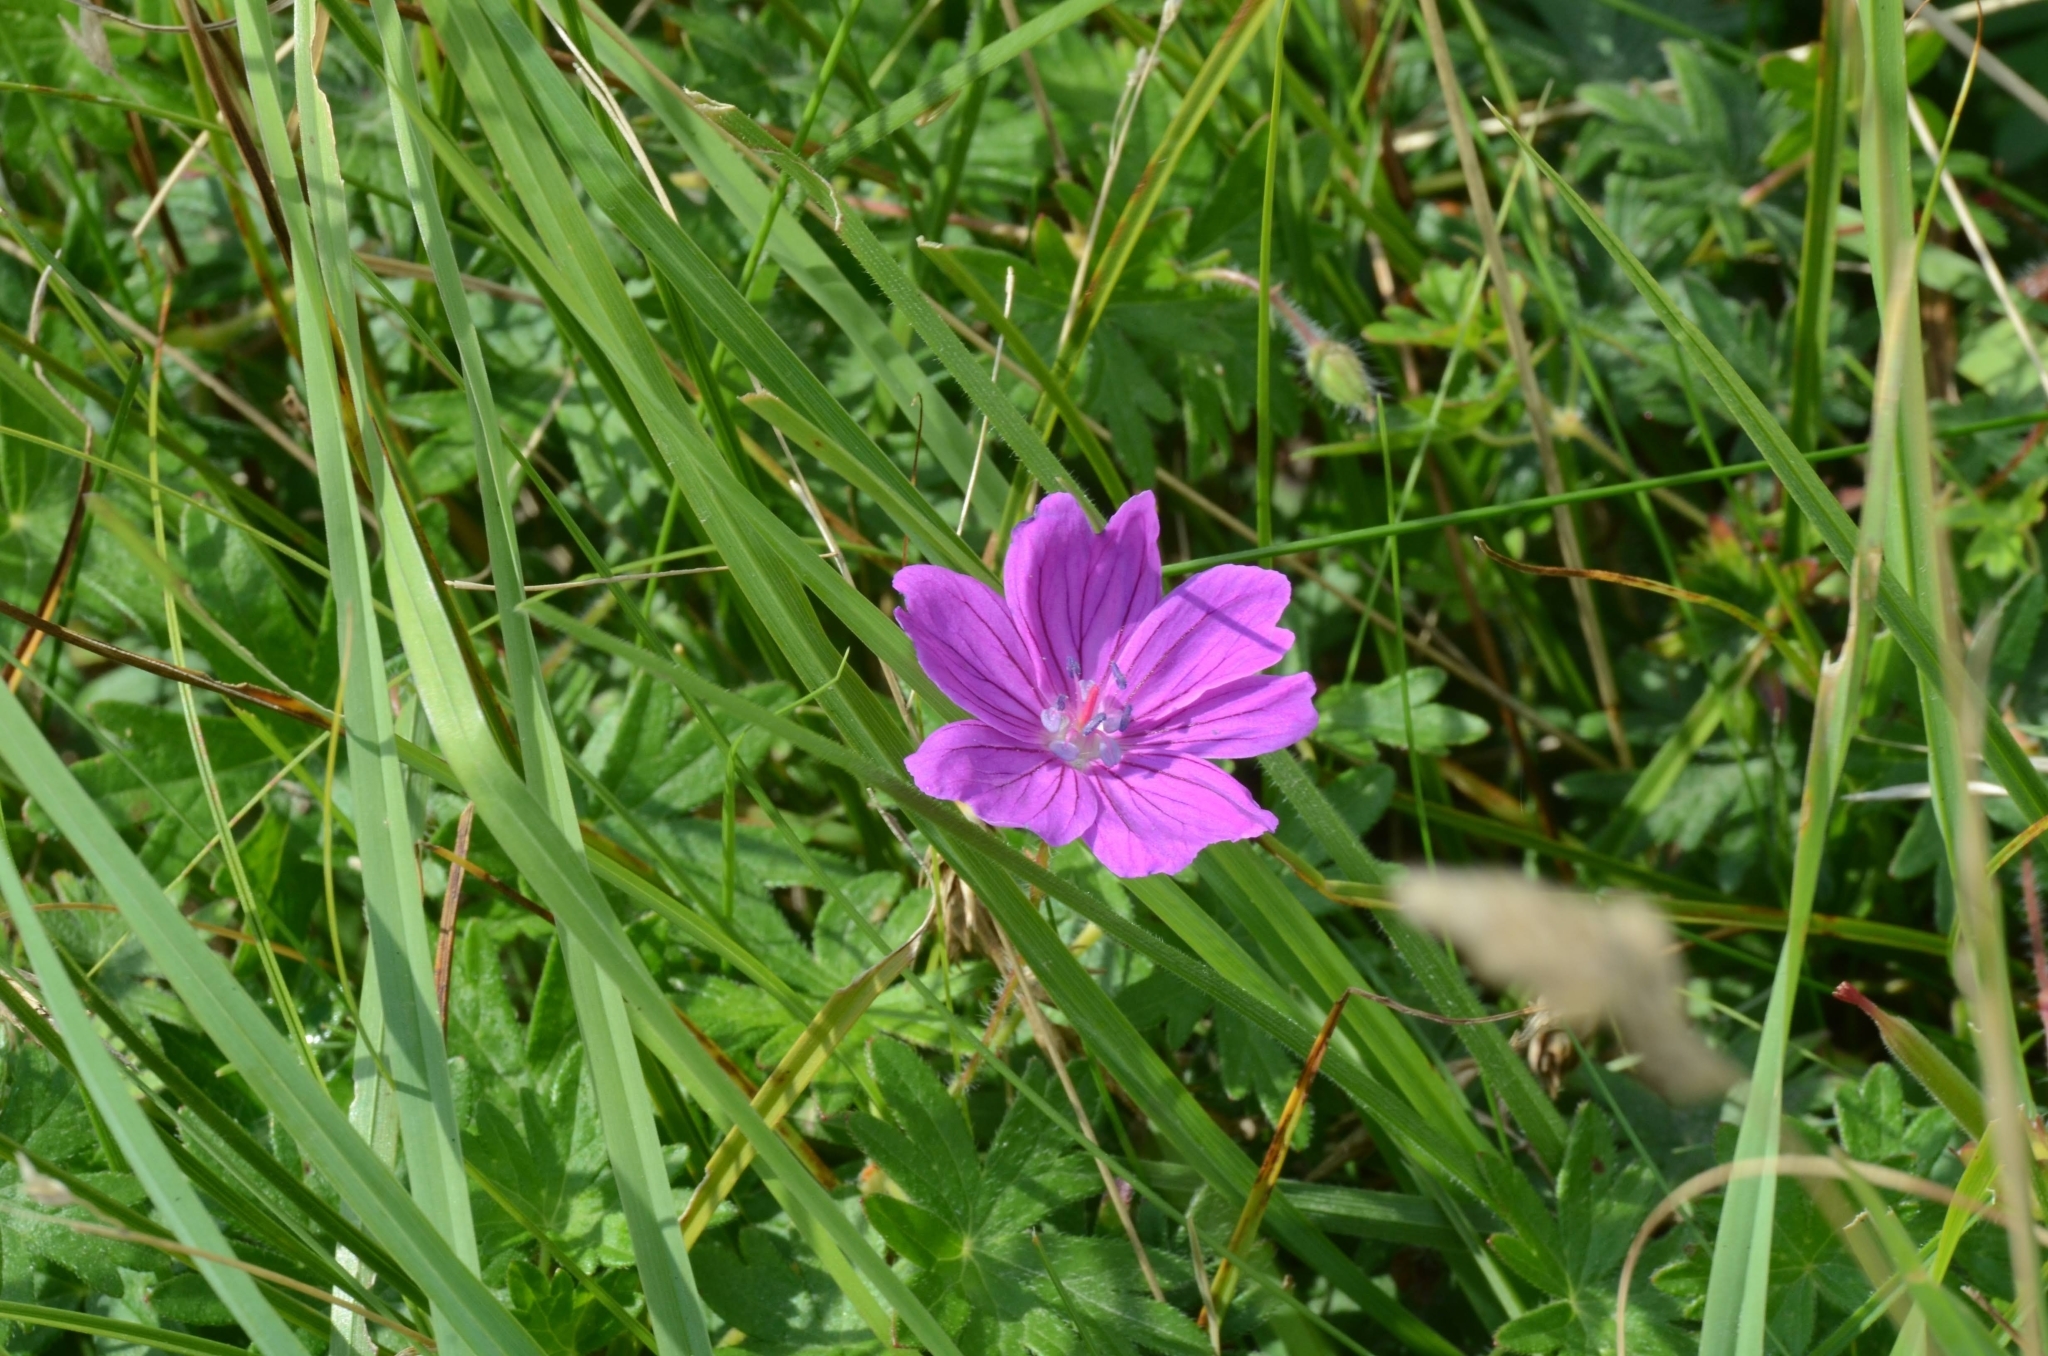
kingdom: Plantae
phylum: Tracheophyta
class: Magnoliopsida
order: Geraniales
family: Geraniaceae
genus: Geranium
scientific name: Geranium sanguineum
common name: Bloody crane's-bill
